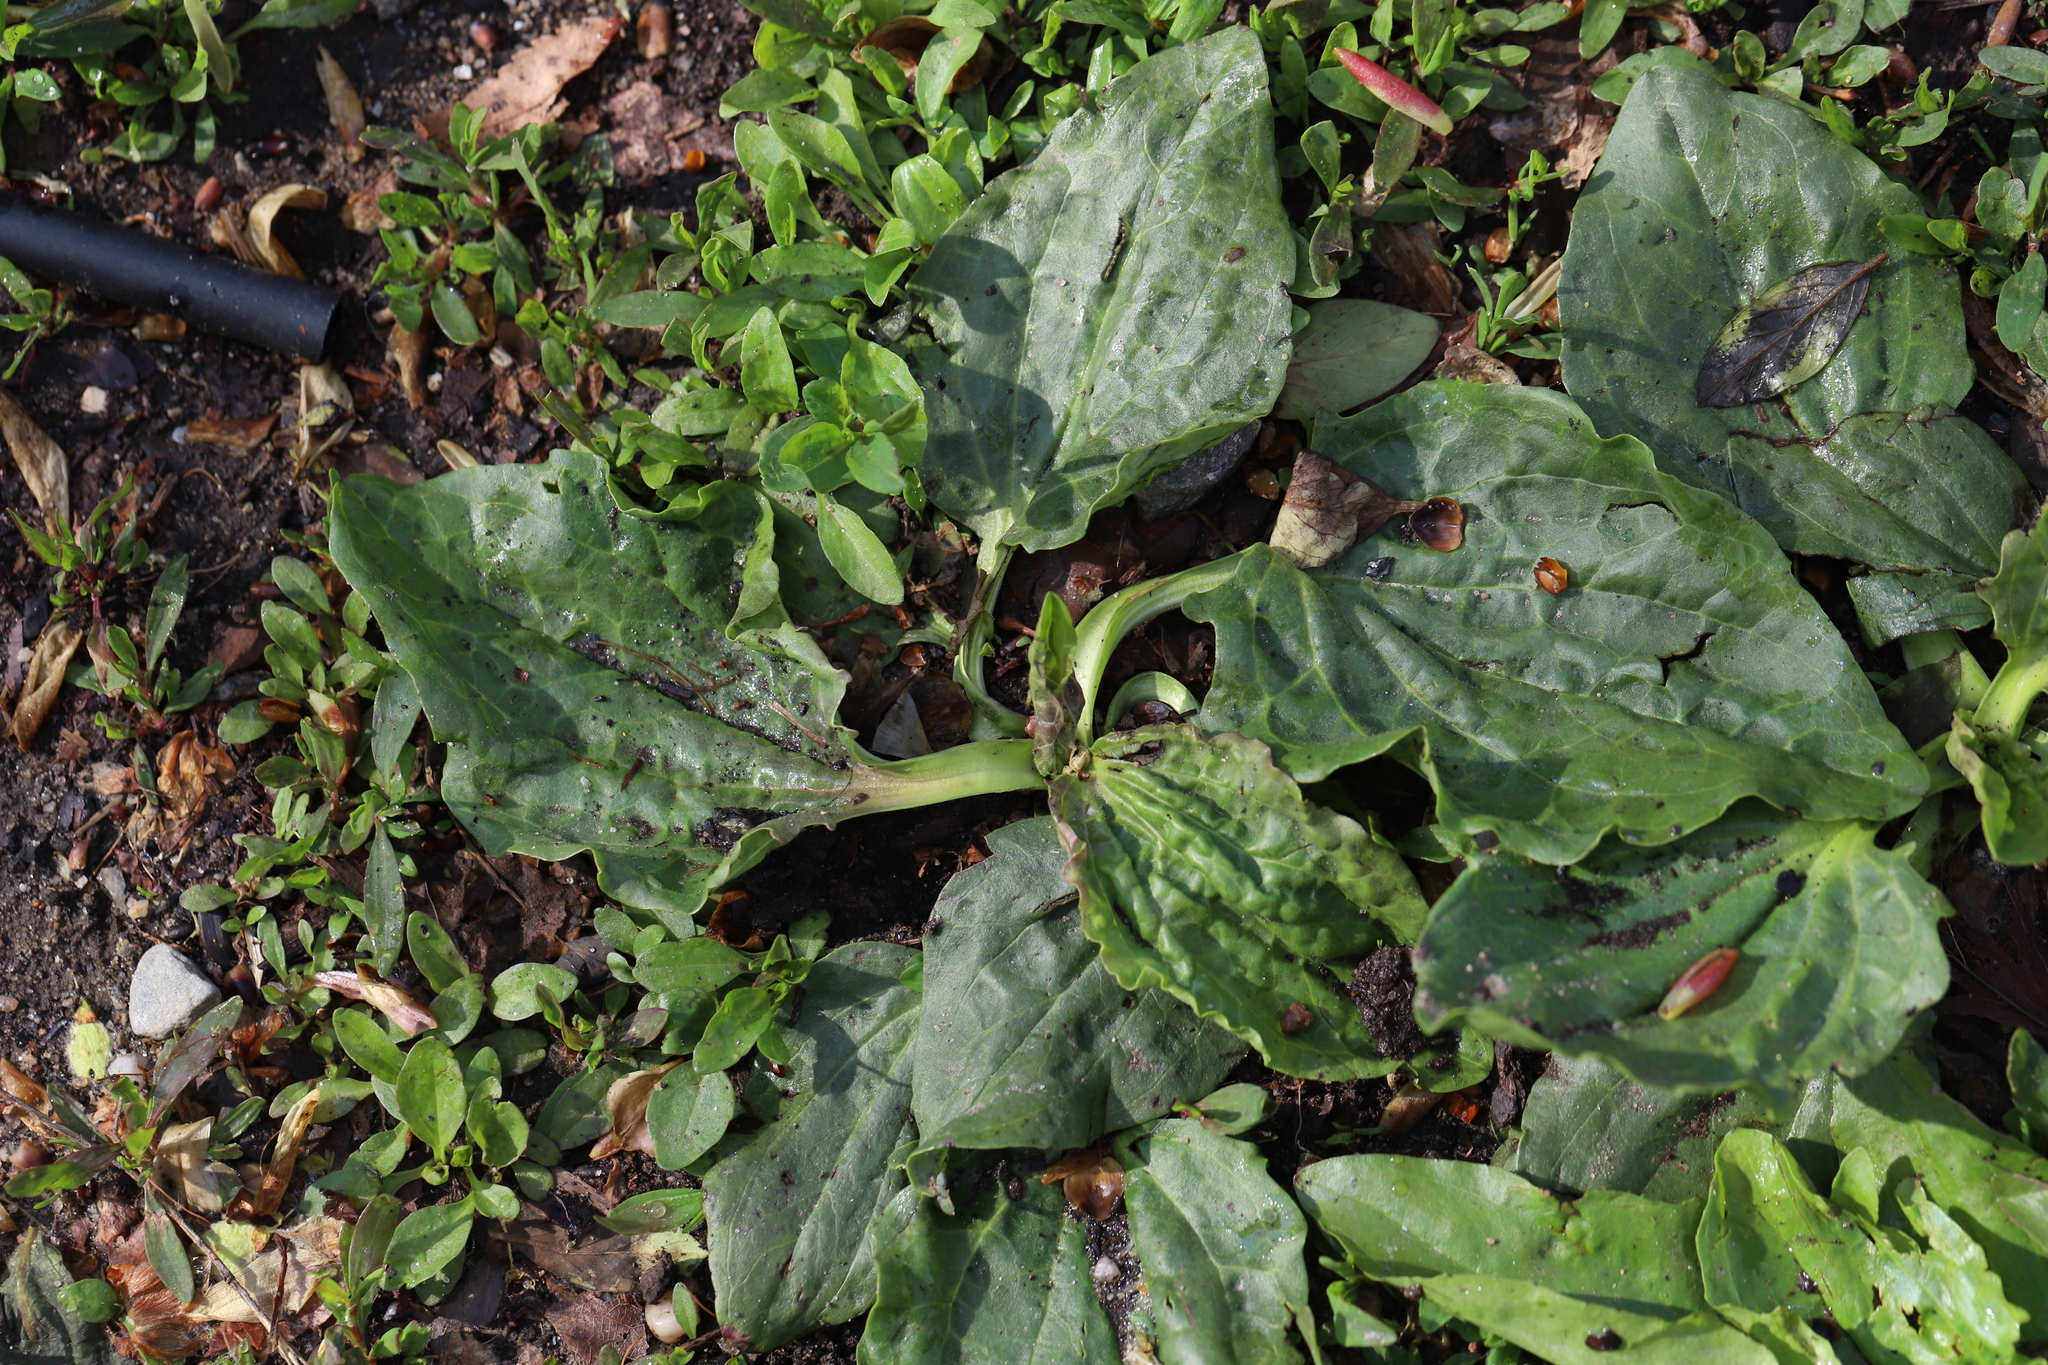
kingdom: Plantae
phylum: Tracheophyta
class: Magnoliopsida
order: Lamiales
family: Plantaginaceae
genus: Plantago
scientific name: Plantago major
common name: Common plantain
